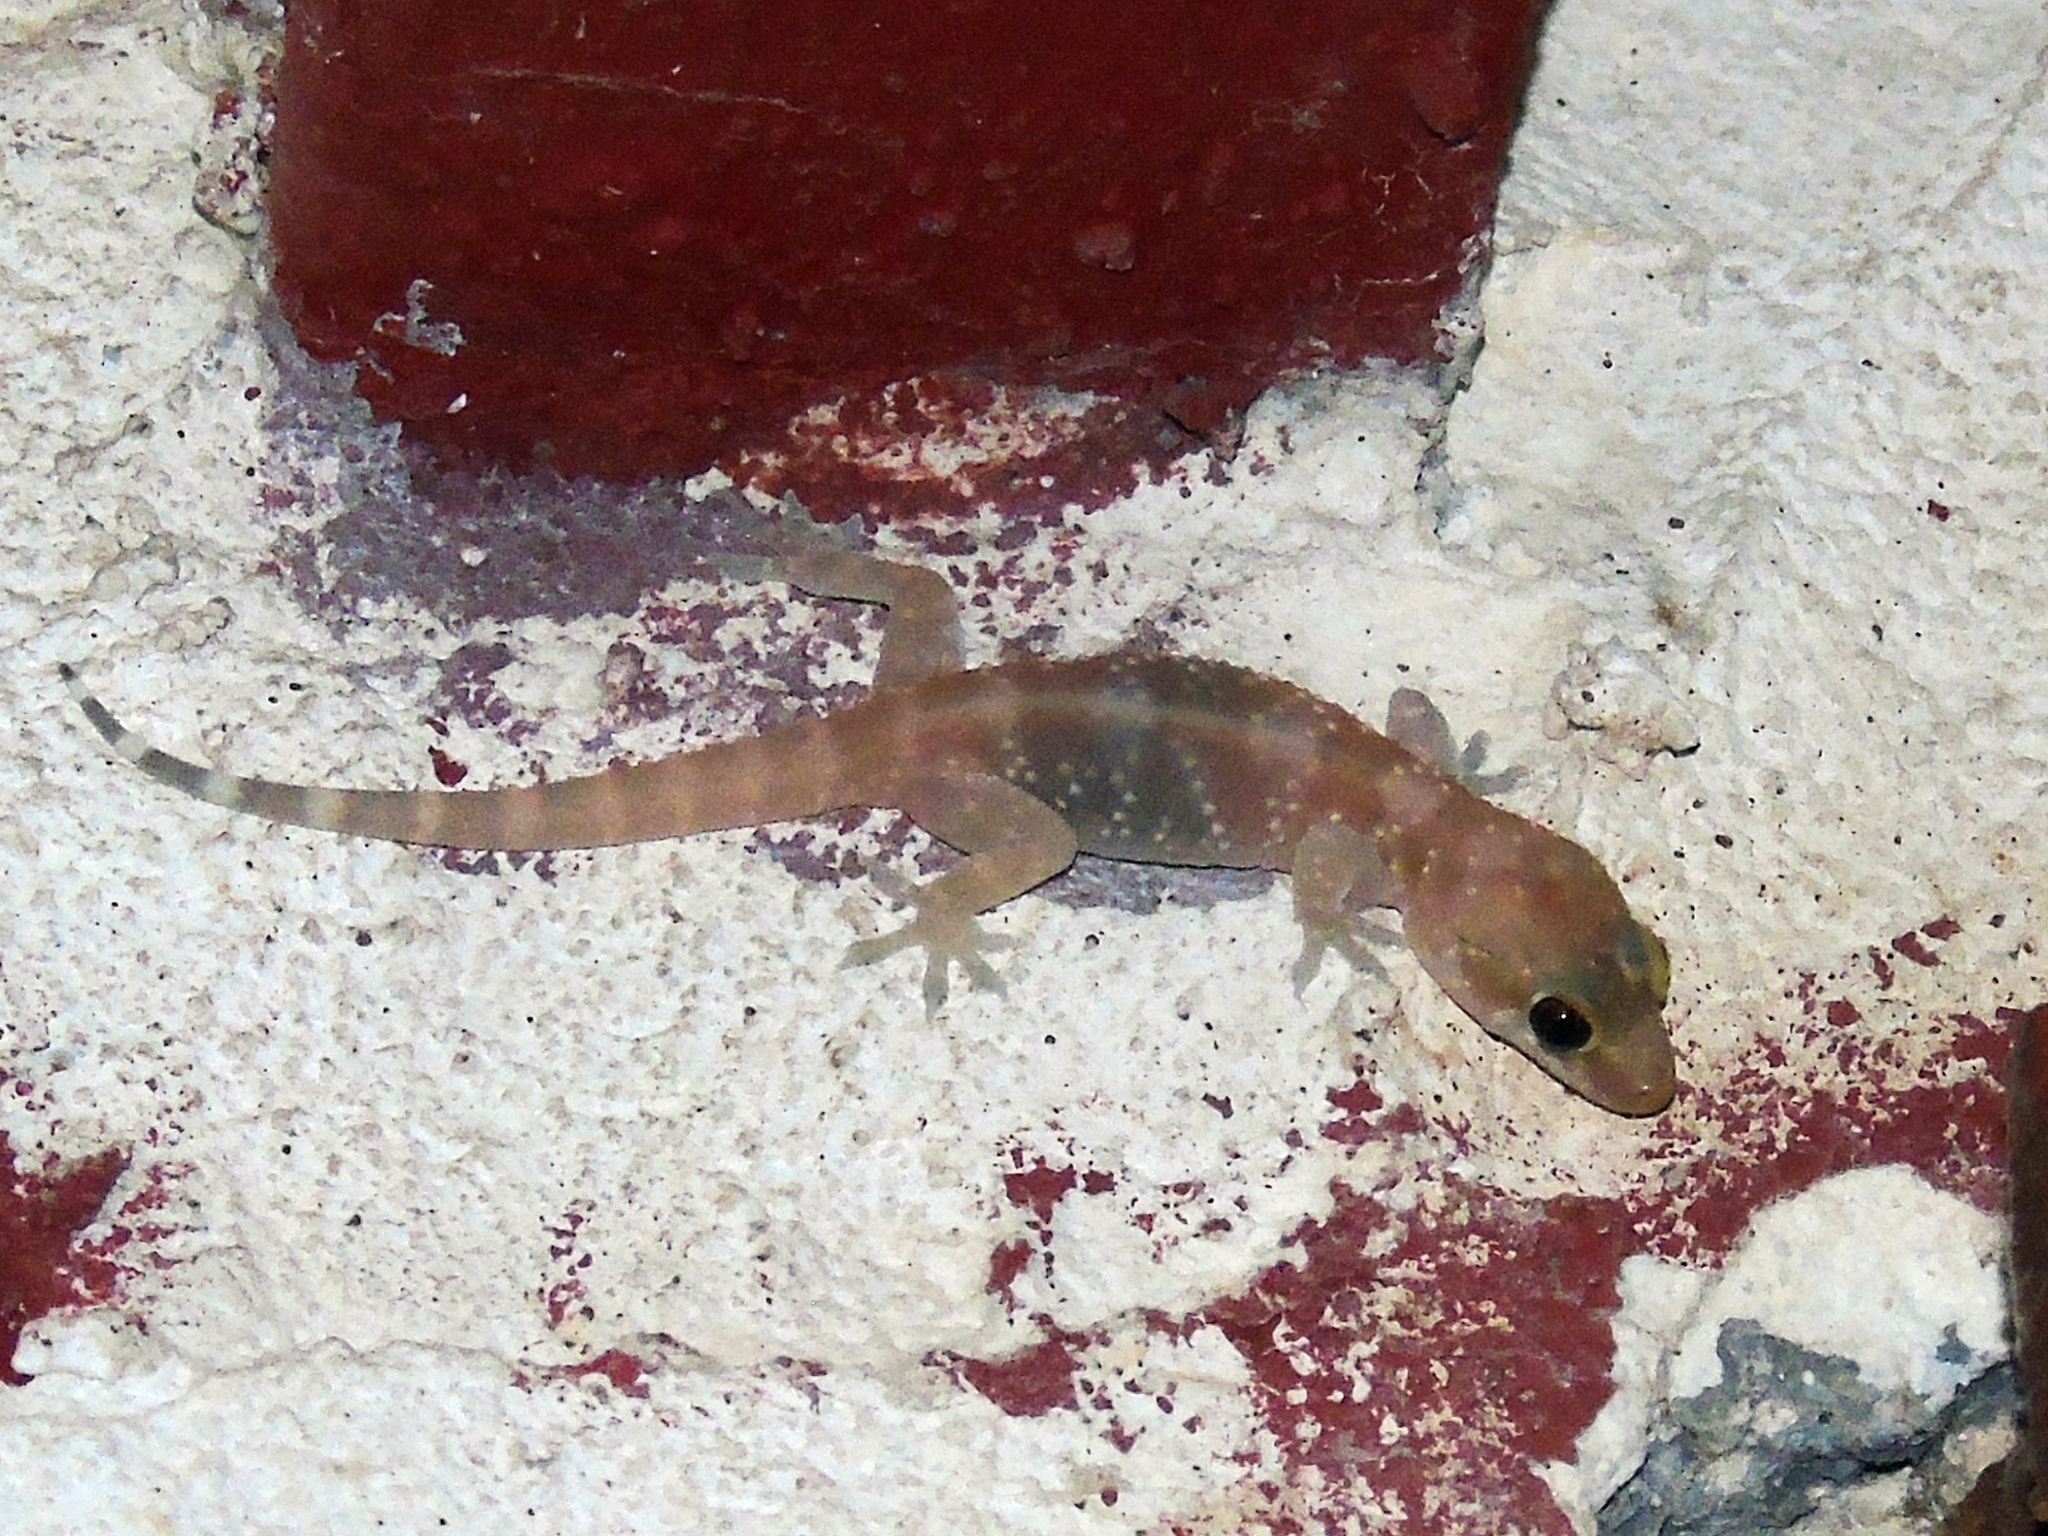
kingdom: Animalia
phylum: Chordata
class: Squamata
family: Gekkonidae
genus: Hemidactylus
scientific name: Hemidactylus turcicus
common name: Turkish gecko
